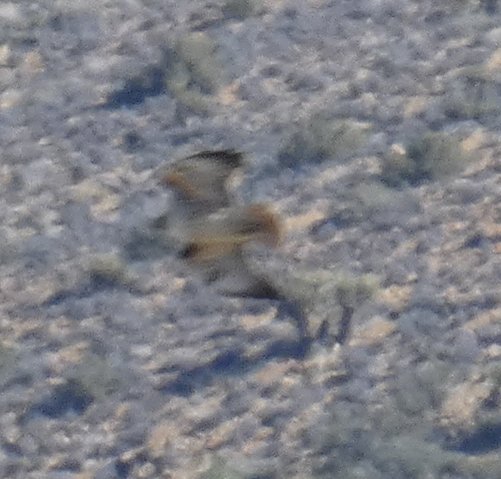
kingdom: Animalia
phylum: Chordata
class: Aves
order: Accipitriformes
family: Accipitridae
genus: Buteo
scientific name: Buteo jamaicensis
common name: Red-tailed hawk
